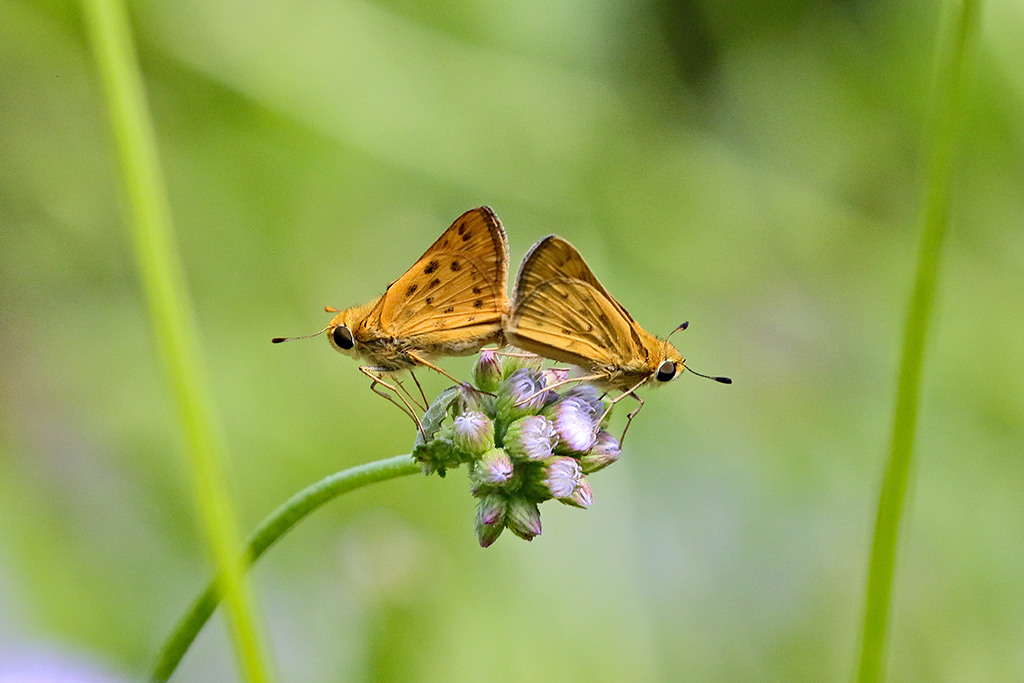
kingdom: Animalia
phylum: Arthropoda
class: Insecta
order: Lepidoptera
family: Hesperiidae
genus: Hylephila
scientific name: Hylephila phyleus
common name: Fiery skipper
